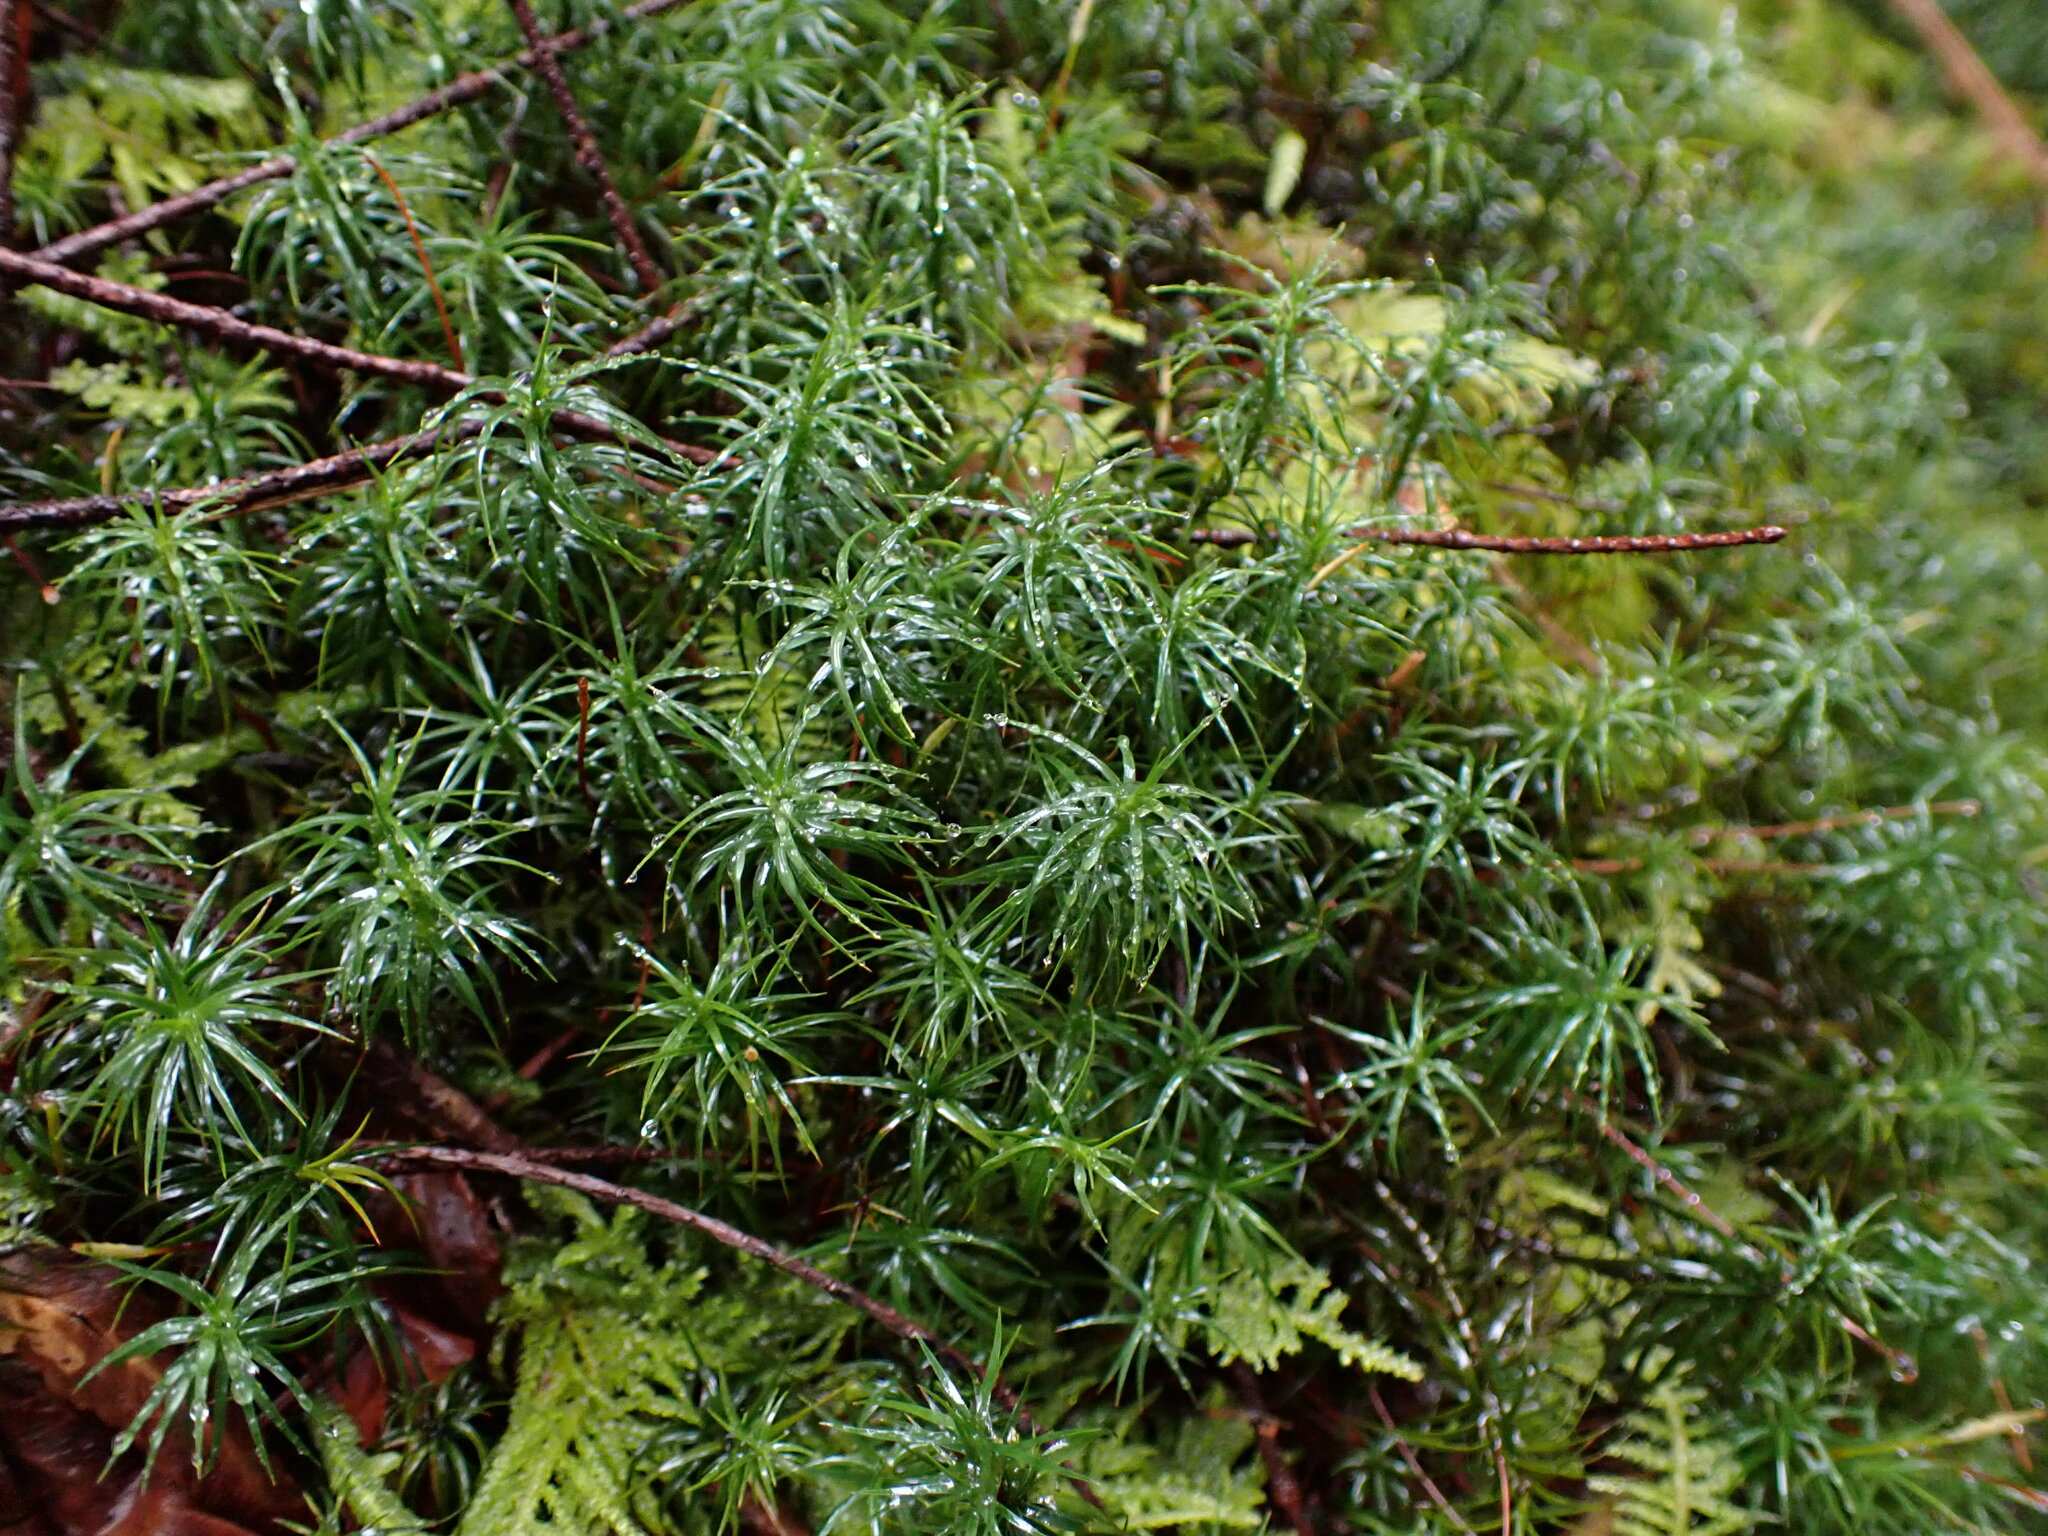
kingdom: Plantae
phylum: Bryophyta
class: Polytrichopsida
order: Polytrichales
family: Polytrichaceae
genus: Polytrichastrum
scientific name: Polytrichastrum alpinum
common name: Alpine haircap
